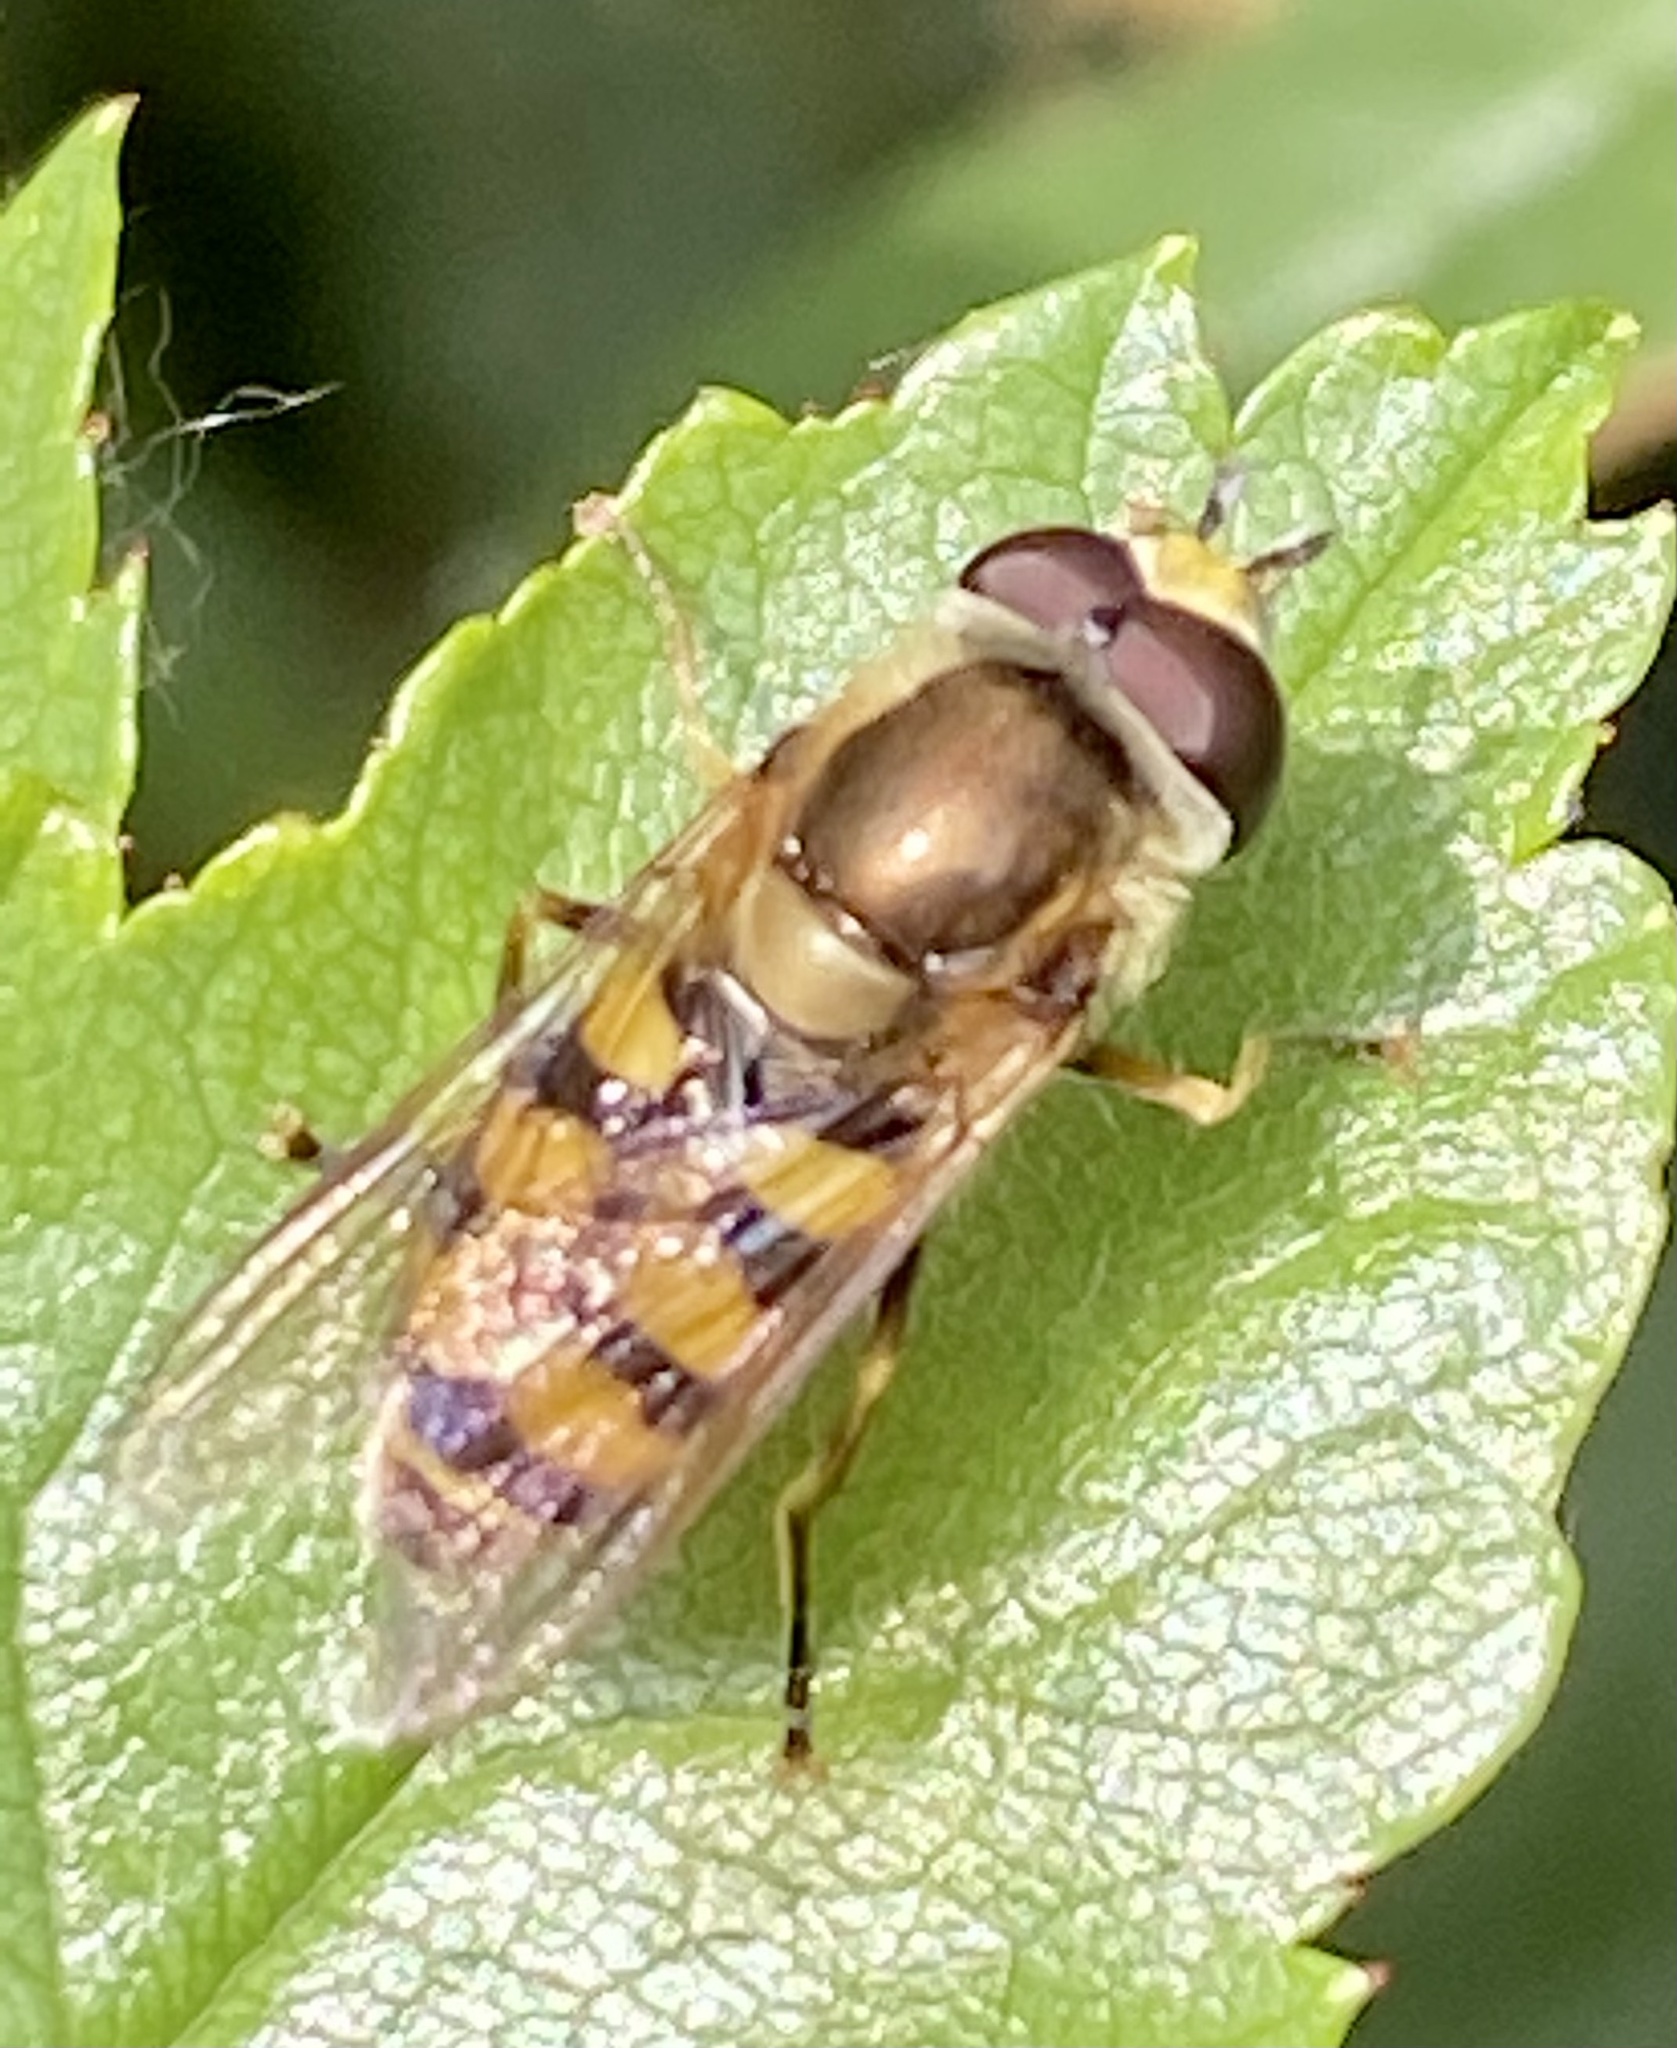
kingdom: Animalia
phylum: Arthropoda
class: Insecta
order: Diptera
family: Syrphidae
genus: Eupeodes
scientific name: Eupeodes corollae
